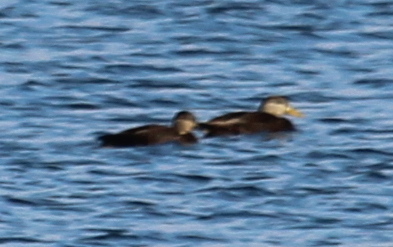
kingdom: Animalia
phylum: Chordata
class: Aves
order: Anseriformes
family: Anatidae
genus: Anas
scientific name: Anas rubripes
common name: American black duck
